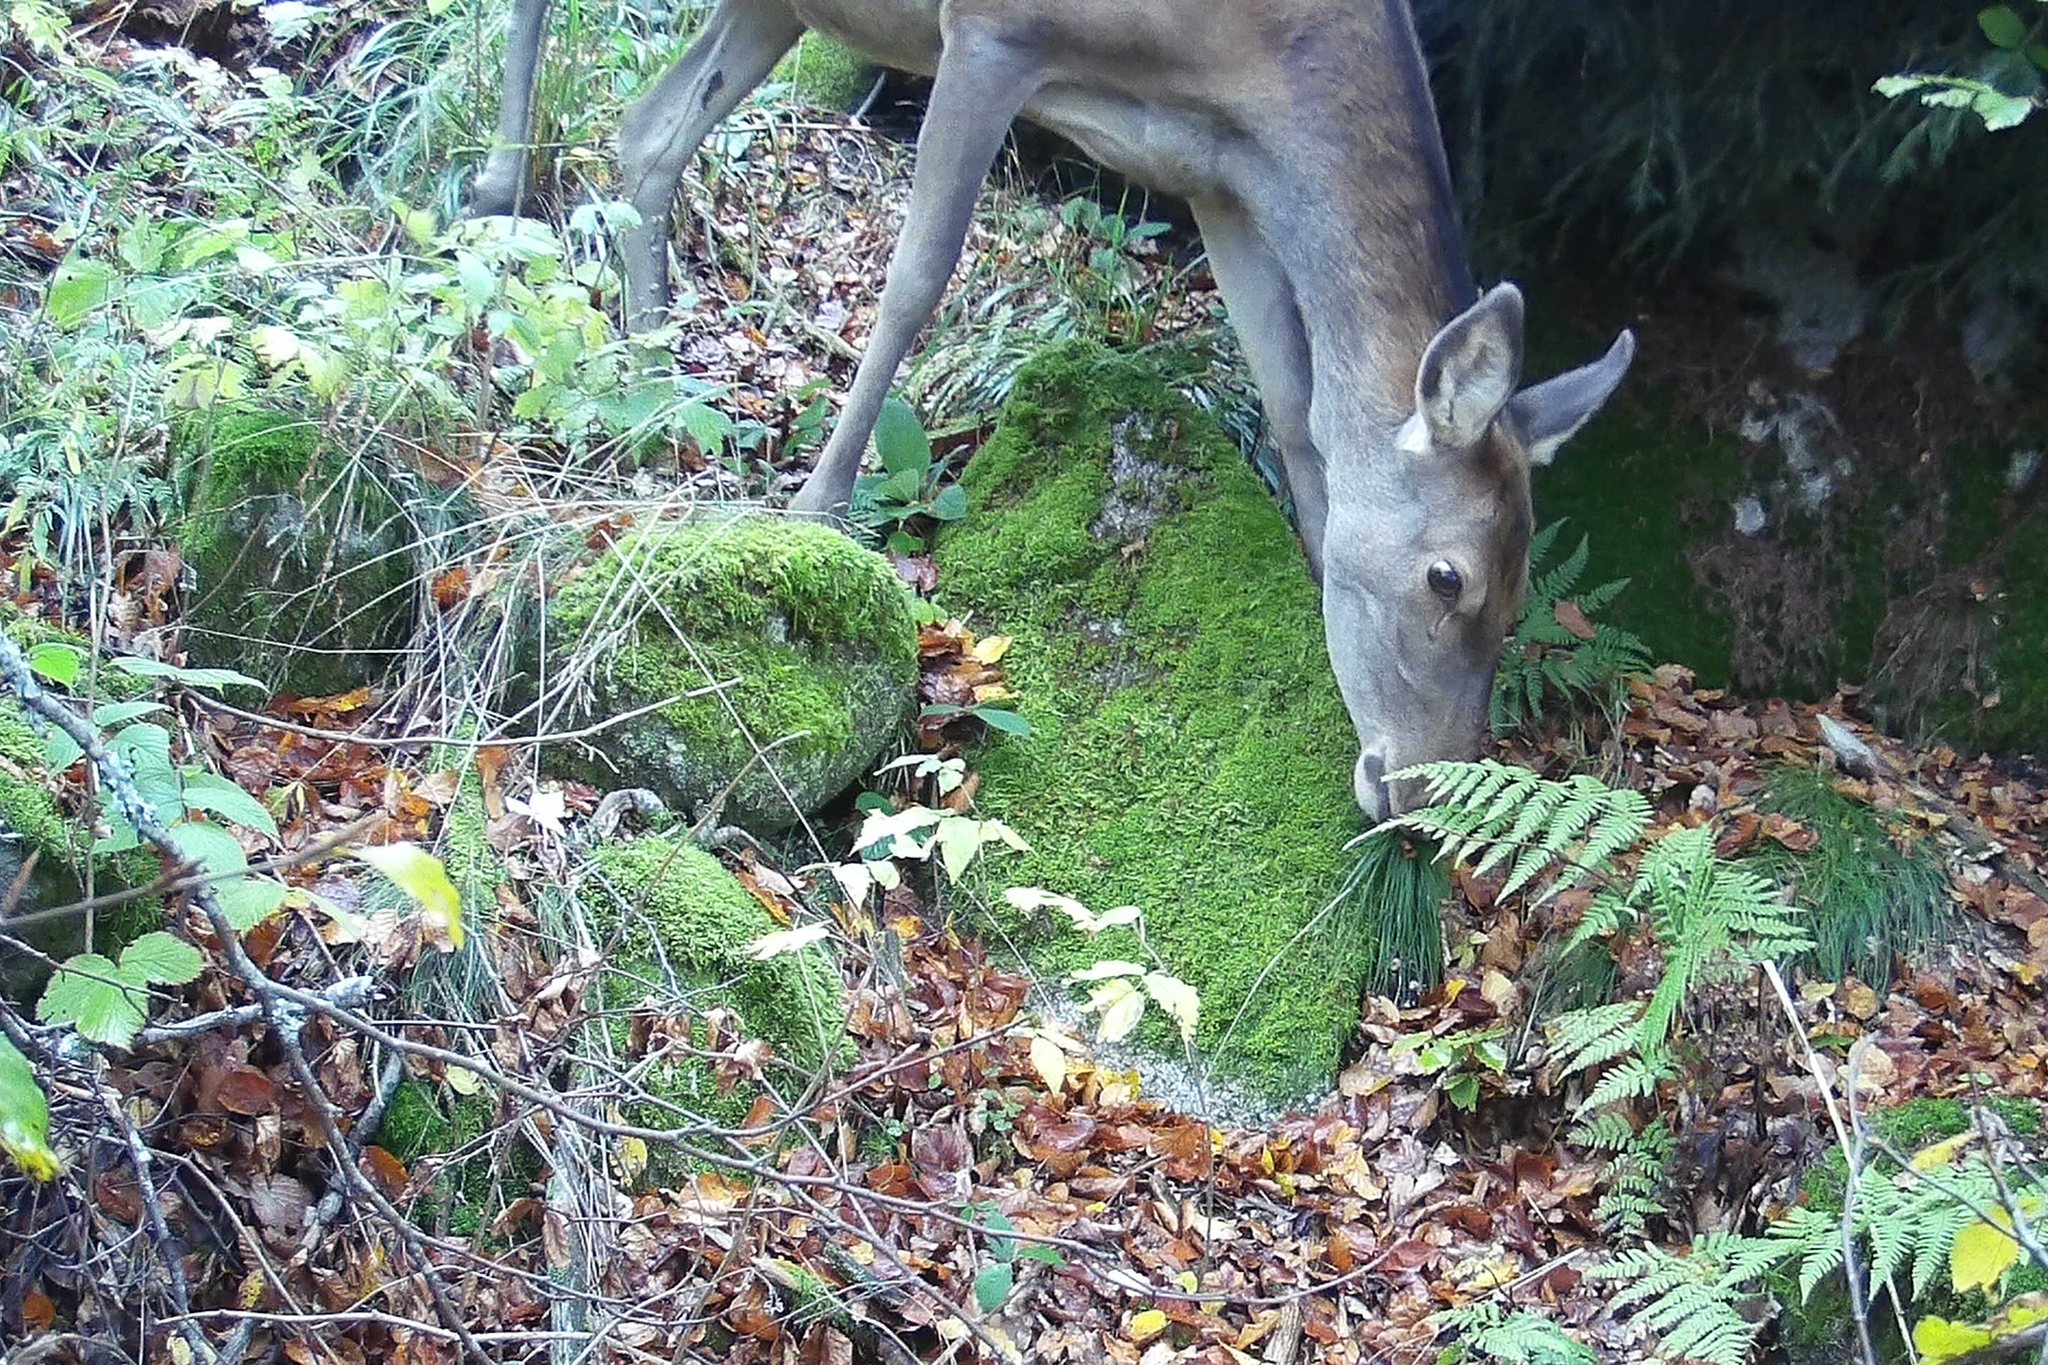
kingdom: Animalia
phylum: Chordata
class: Mammalia
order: Artiodactyla
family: Cervidae
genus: Cervus
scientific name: Cervus elaphus
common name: Red deer
